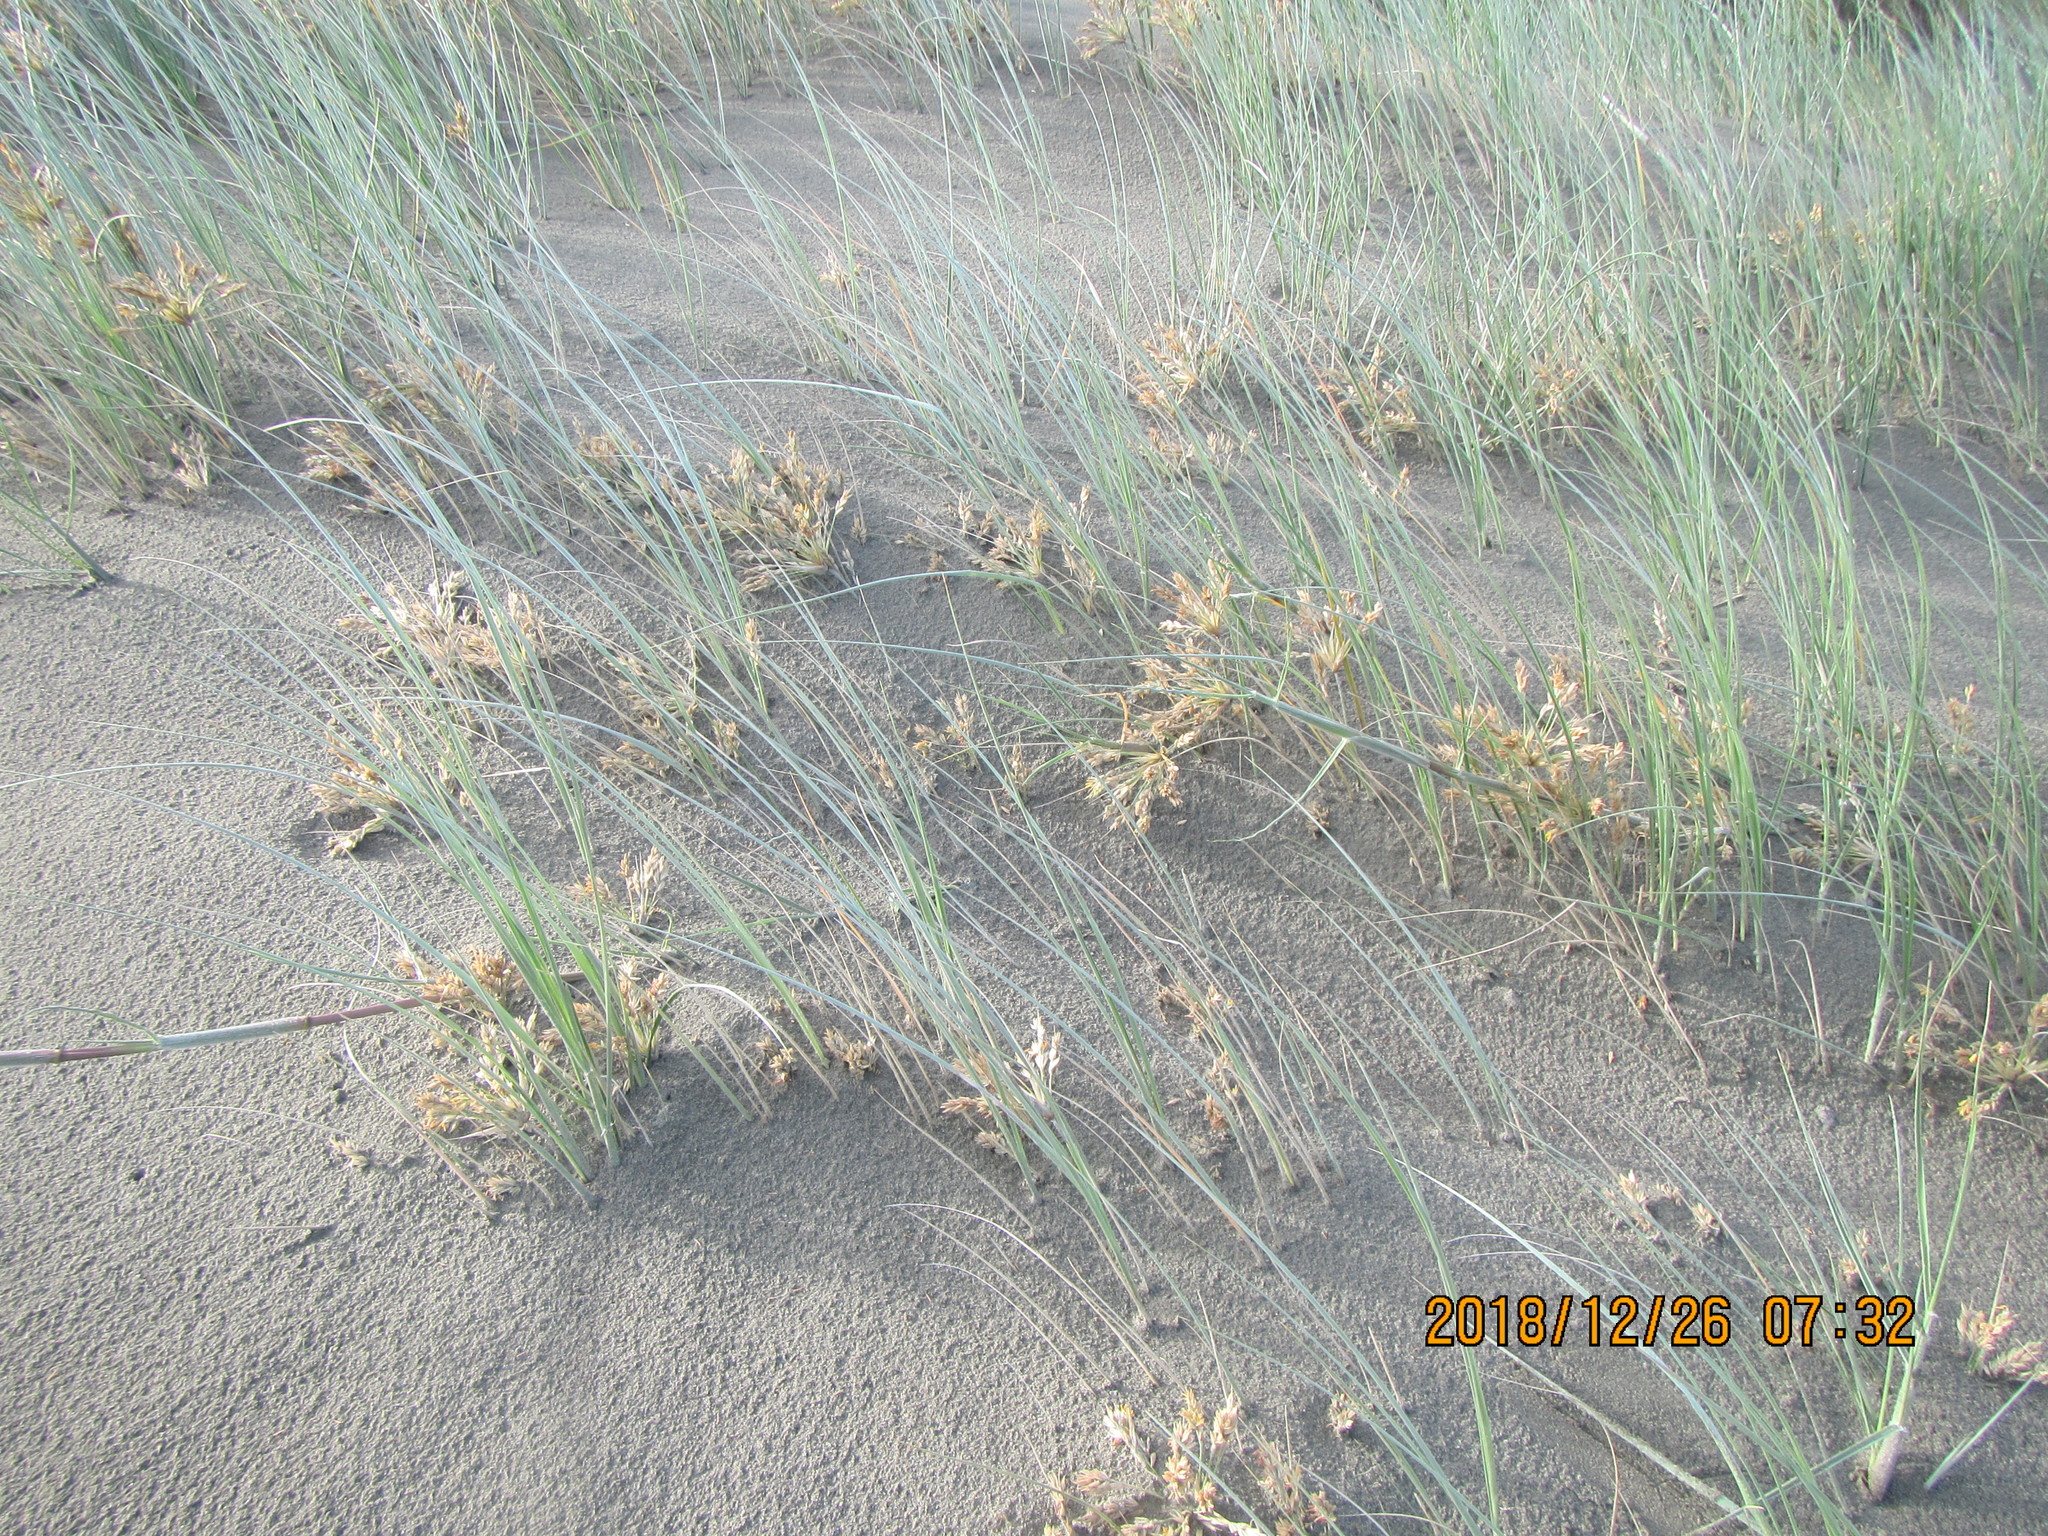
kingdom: Plantae
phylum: Tracheophyta
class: Liliopsida
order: Poales
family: Poaceae
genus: Spinifex
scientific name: Spinifex sericeus
